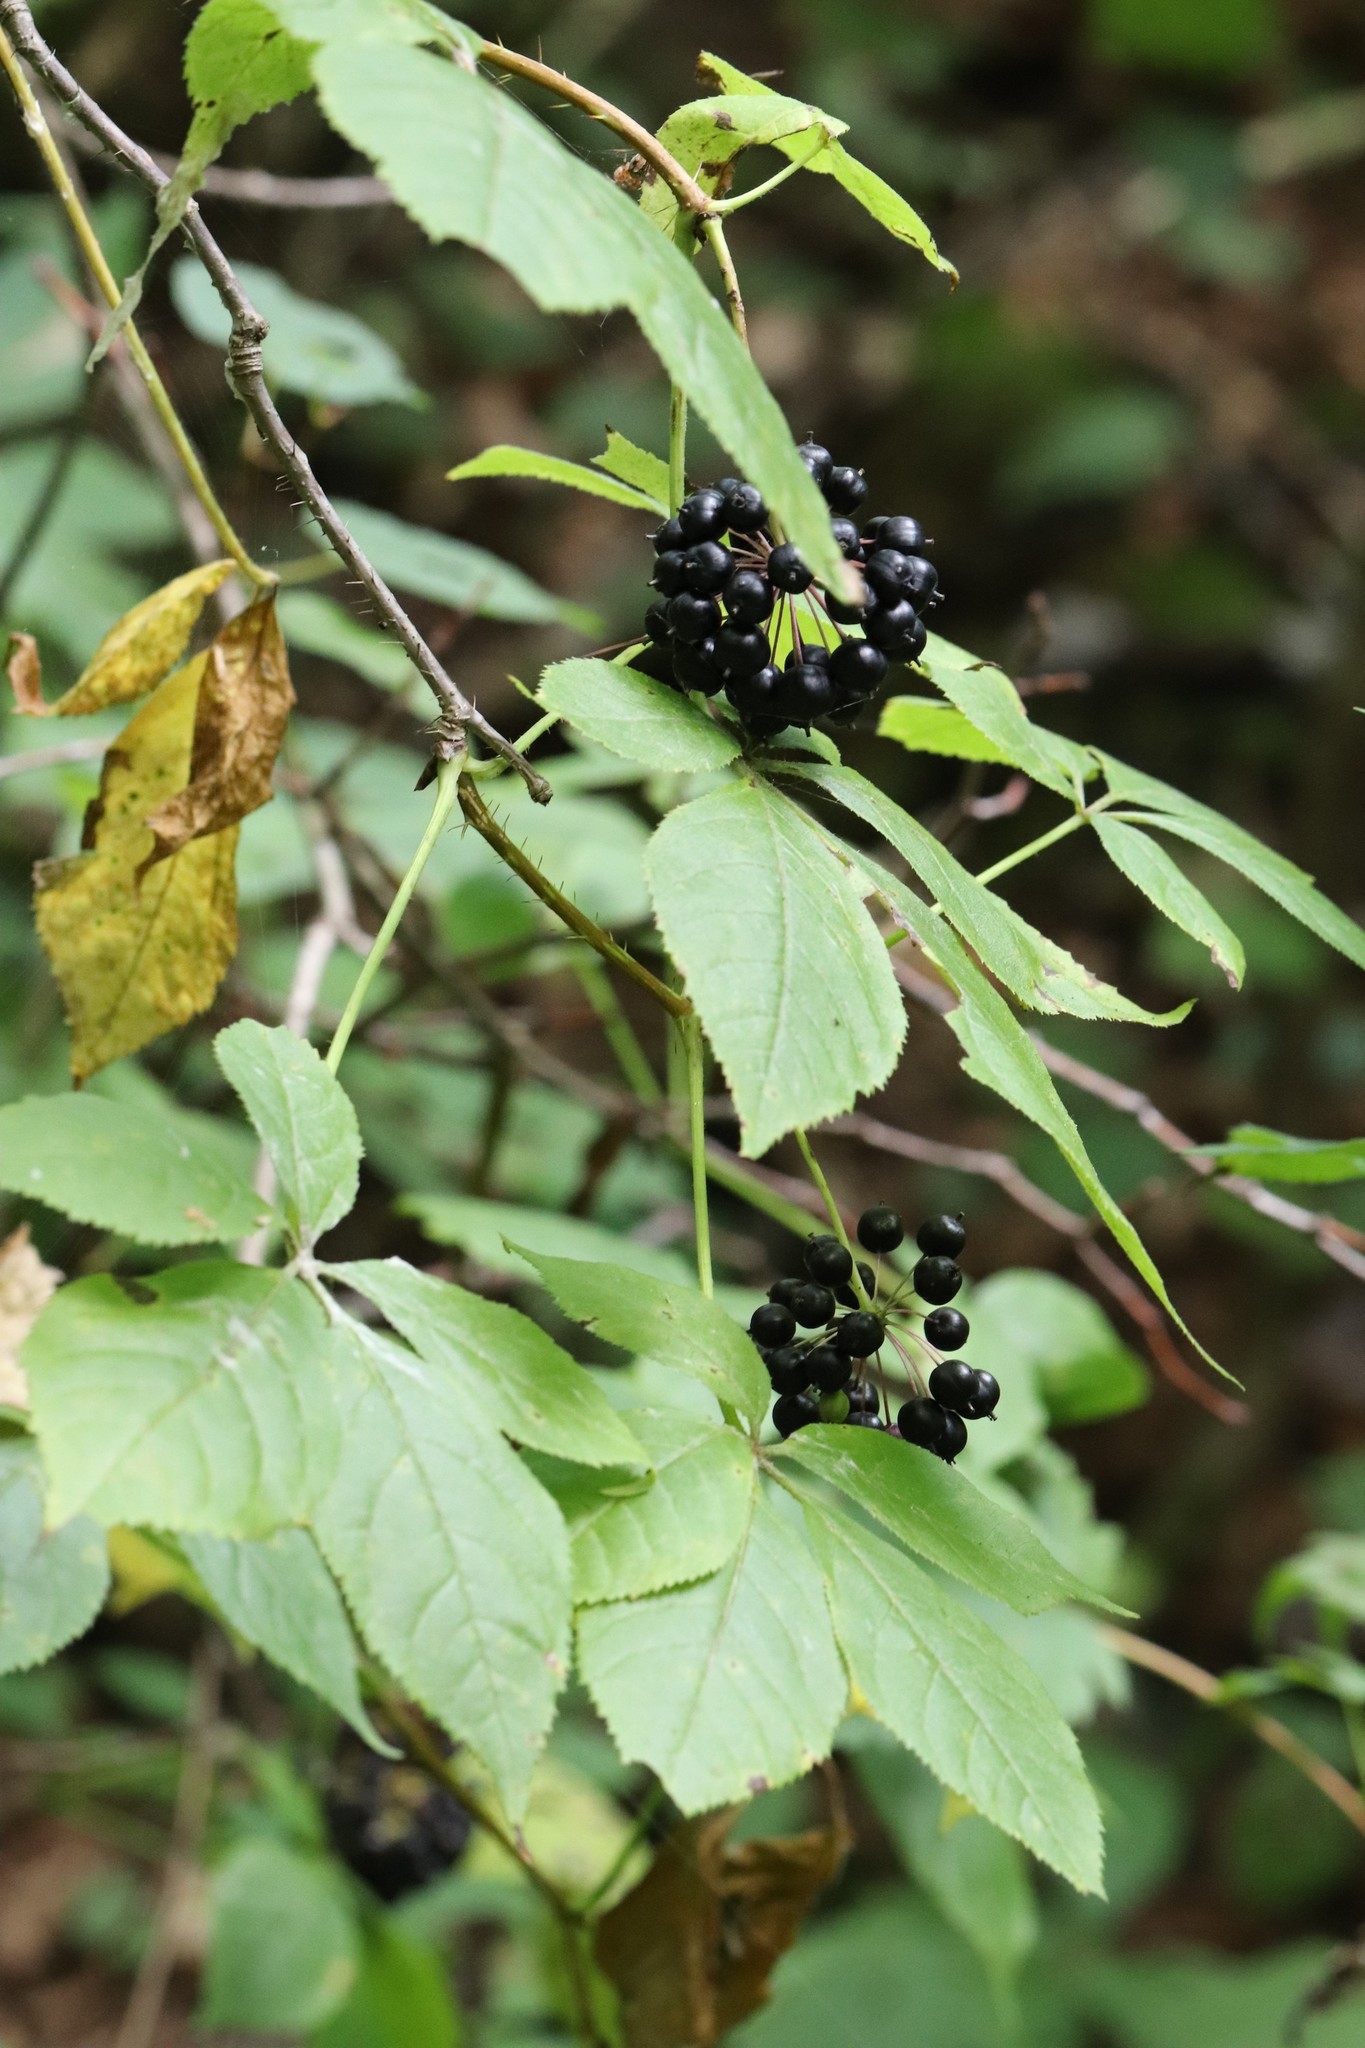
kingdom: Plantae
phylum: Tracheophyta
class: Magnoliopsida
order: Apiales
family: Araliaceae
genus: Eleutherococcus
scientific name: Eleutherococcus senticosus
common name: Siberian-ginseng
